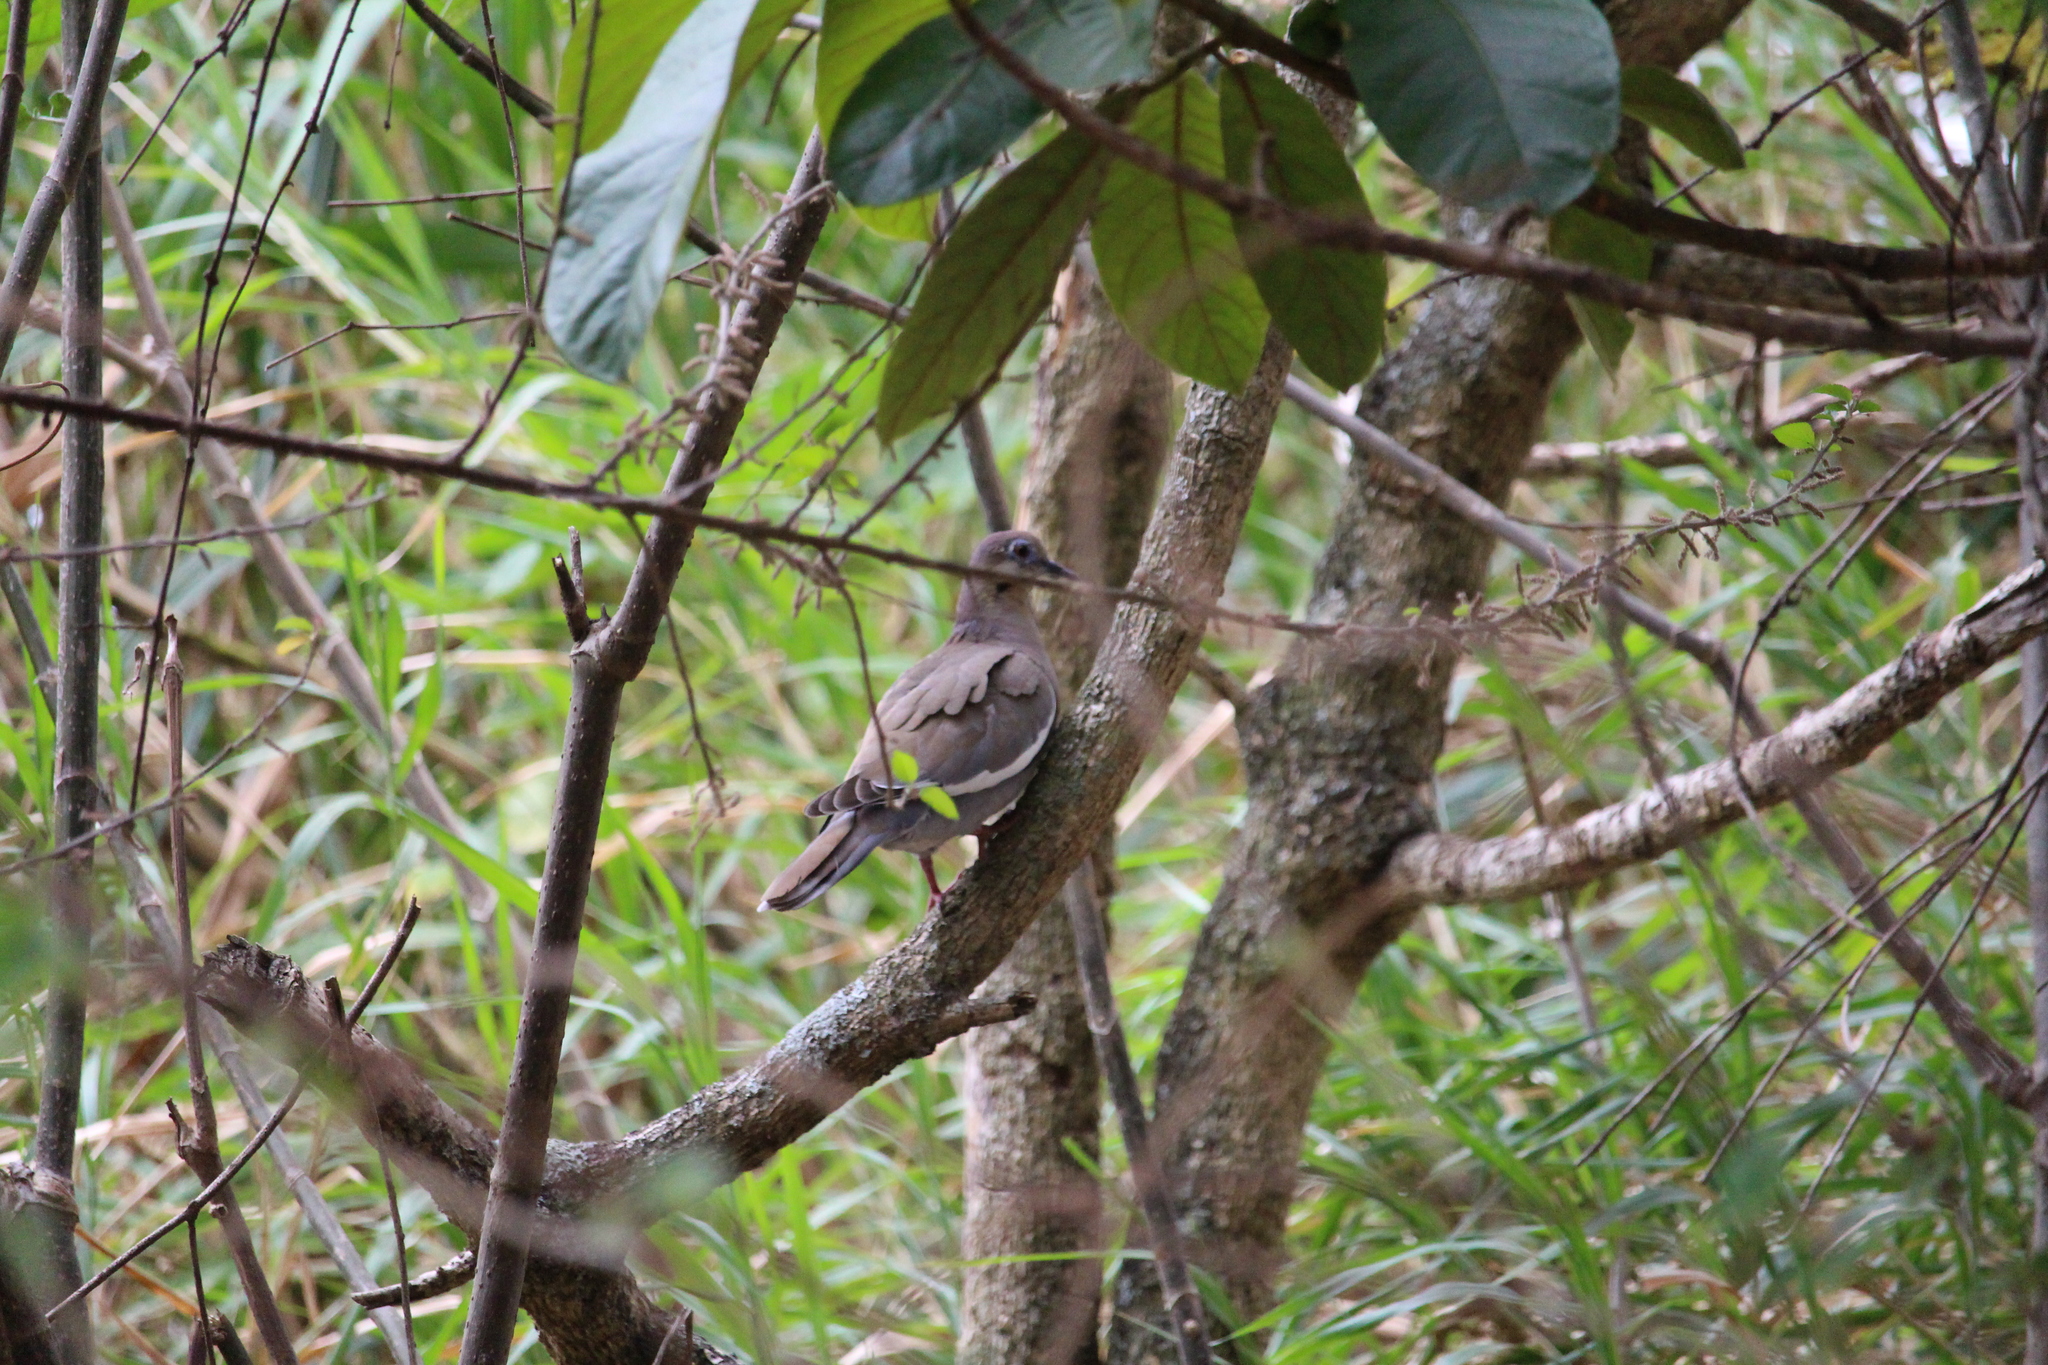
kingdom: Animalia
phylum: Chordata
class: Aves
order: Columbiformes
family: Columbidae
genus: Zenaida
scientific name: Zenaida asiatica
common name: White-winged dove
